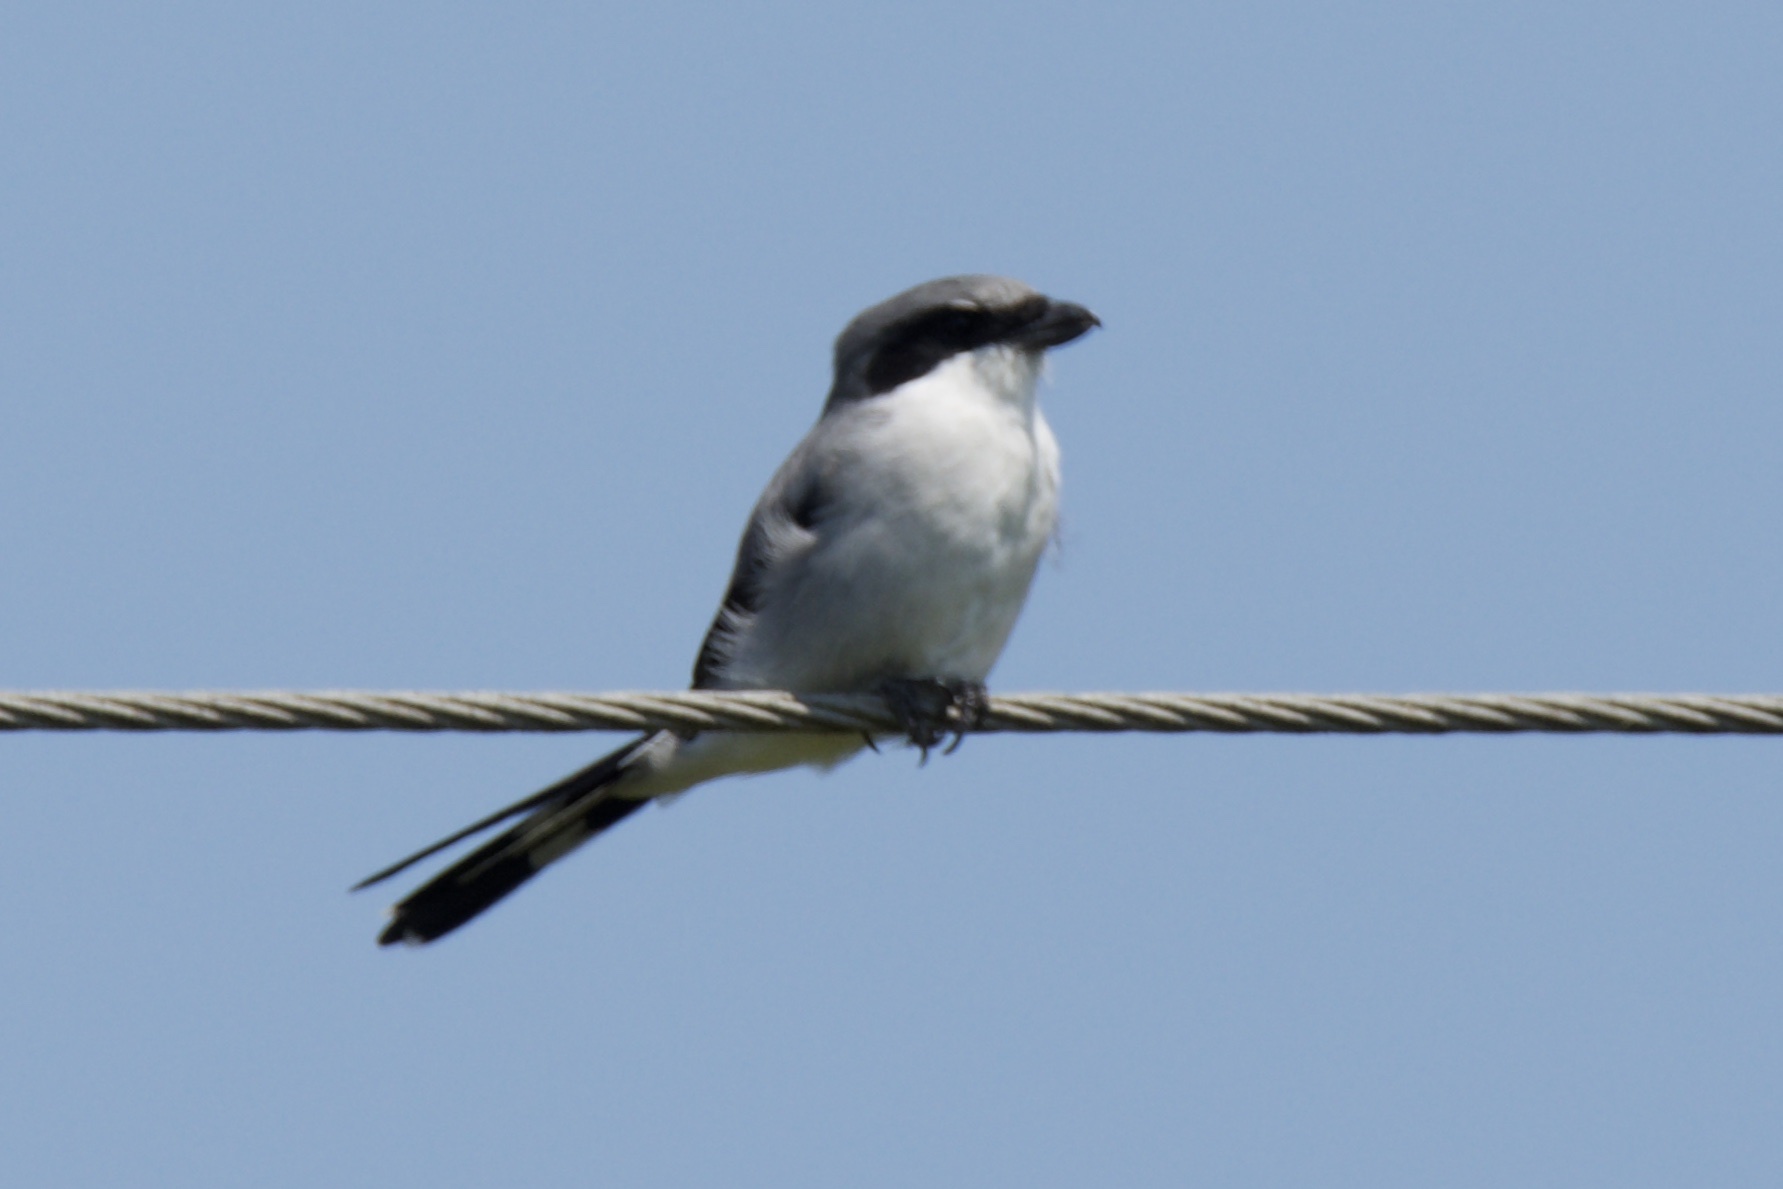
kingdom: Animalia
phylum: Chordata
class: Aves
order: Passeriformes
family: Laniidae
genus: Lanius
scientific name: Lanius ludovicianus
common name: Loggerhead shrike
